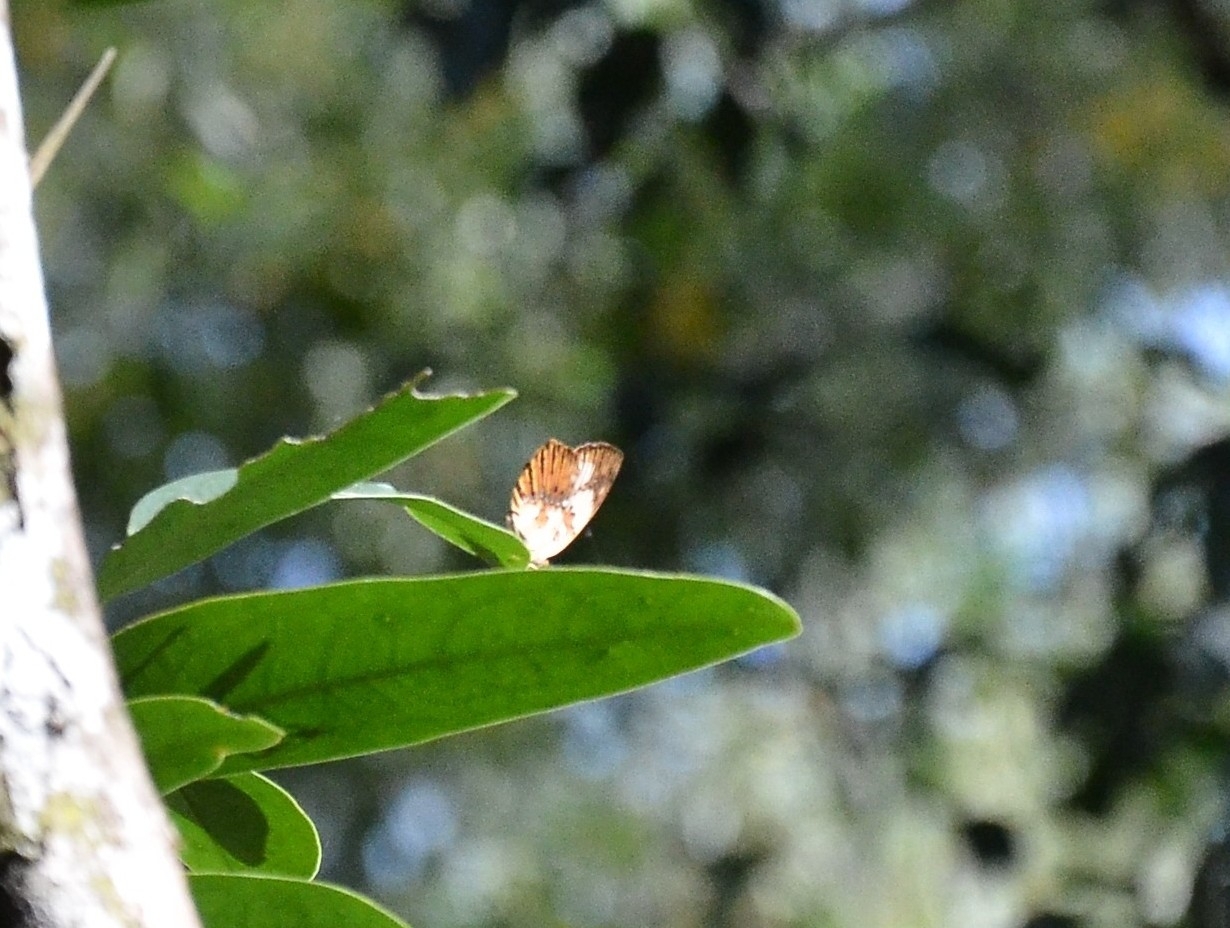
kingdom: Animalia
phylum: Arthropoda
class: Insecta
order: Lepidoptera
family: Nymphalidae
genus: Cupha
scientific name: Cupha erymanthis
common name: Rustic
